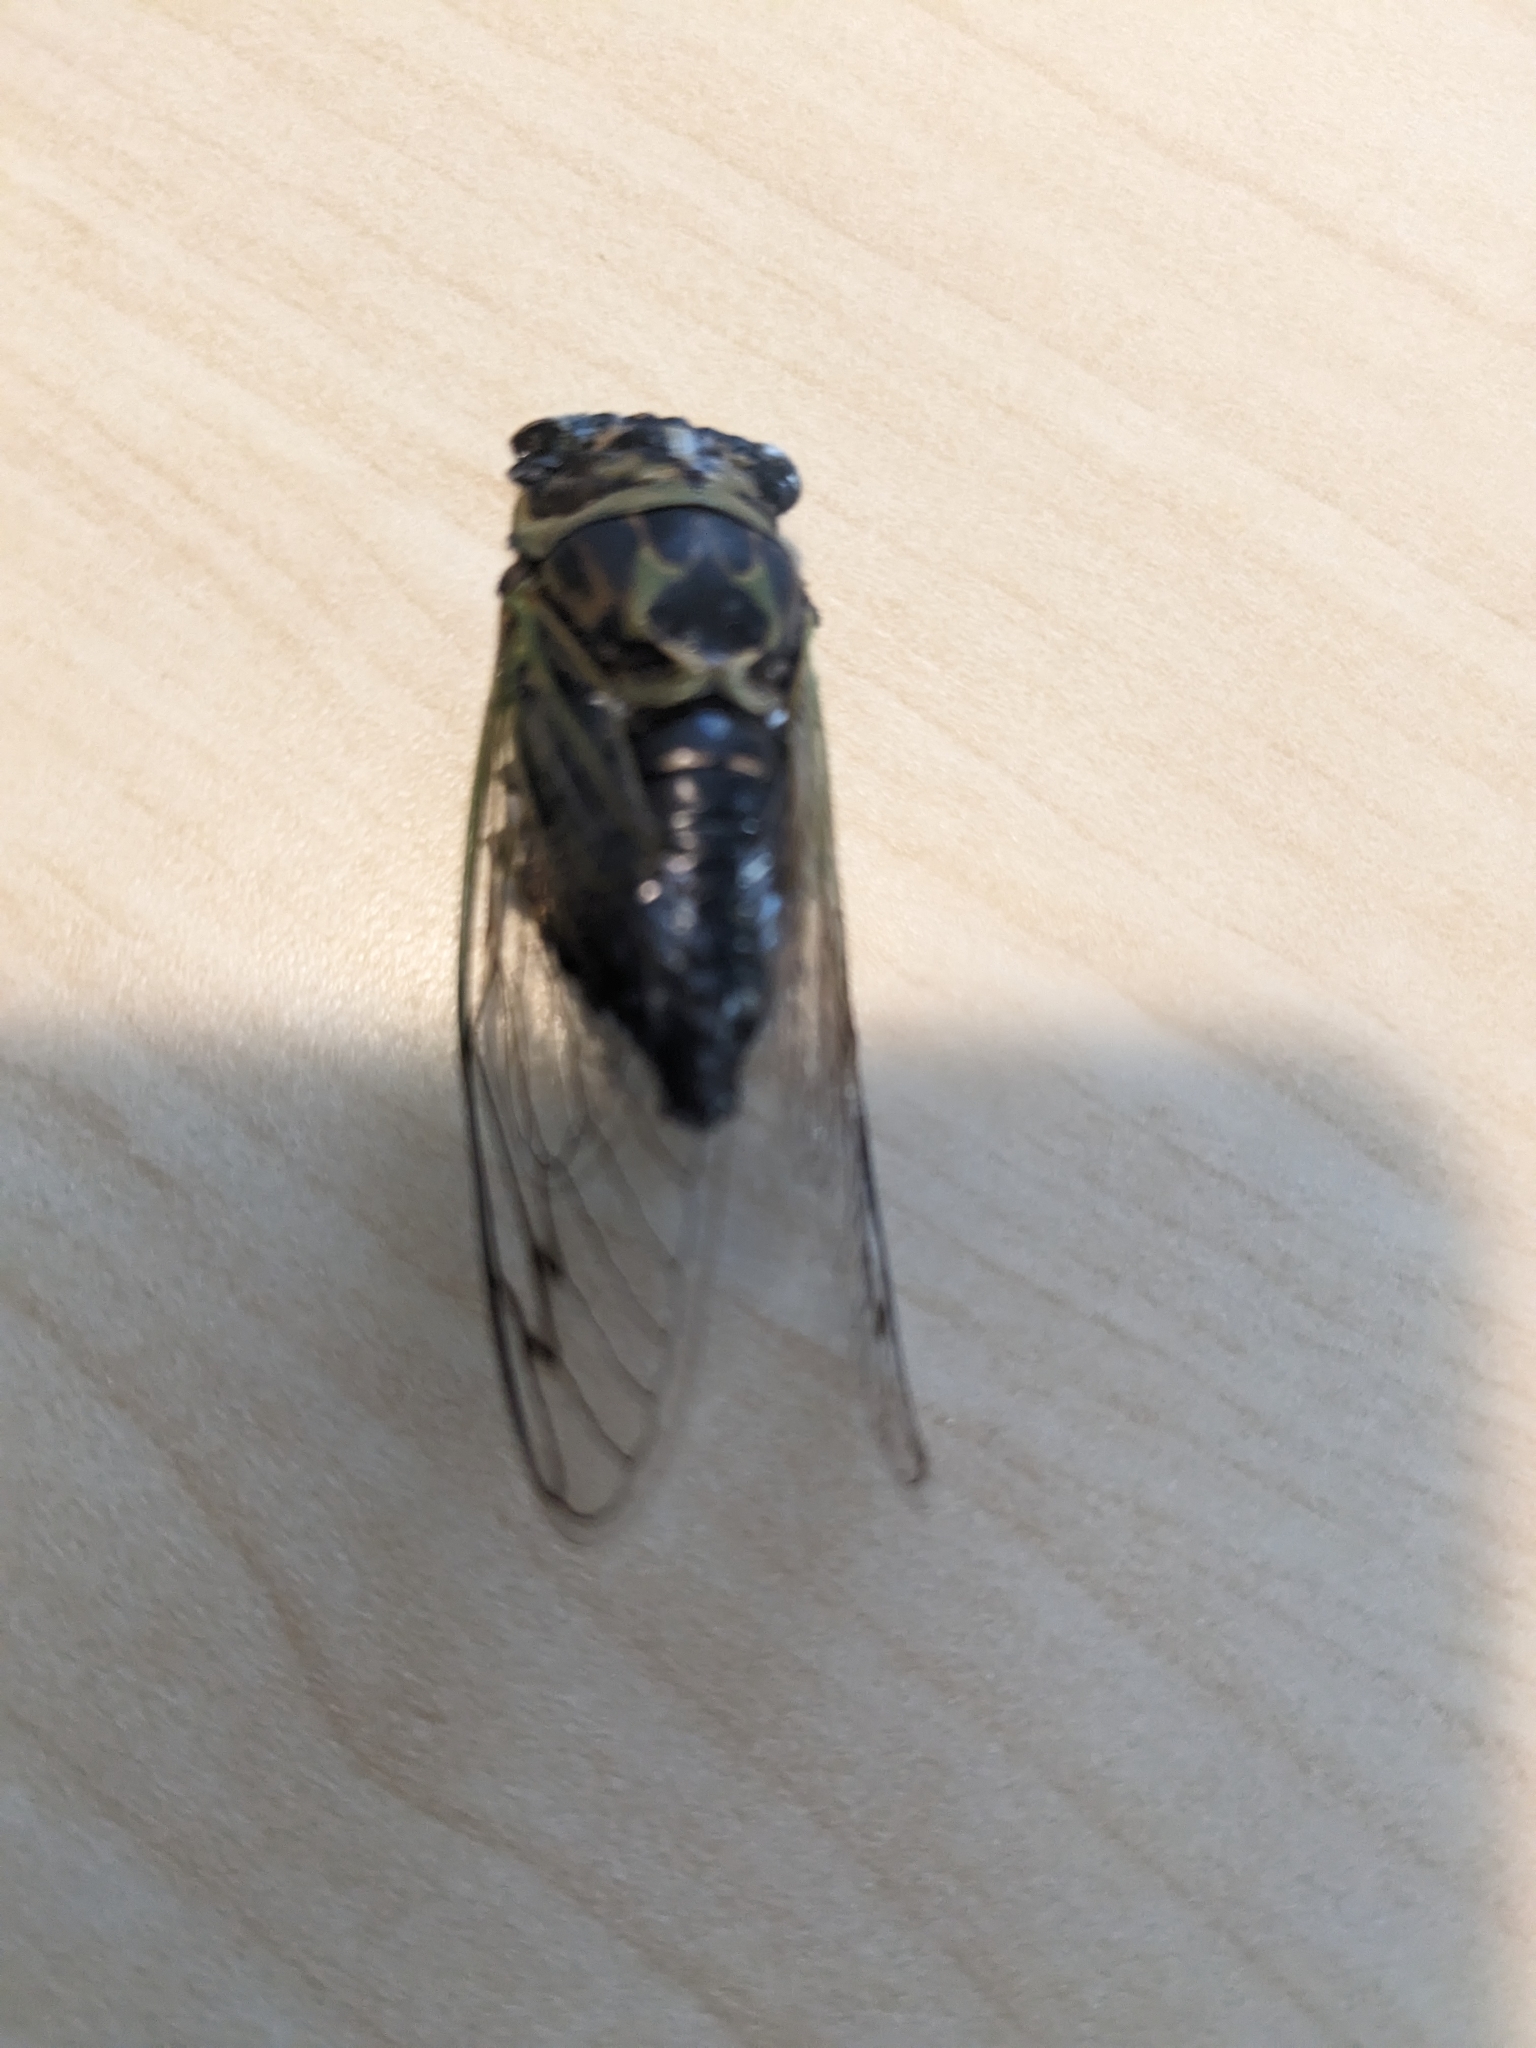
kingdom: Animalia
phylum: Arthropoda
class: Insecta
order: Hemiptera
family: Cicadidae
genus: Neotibicen
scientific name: Neotibicen canicularis
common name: God-day cicada
